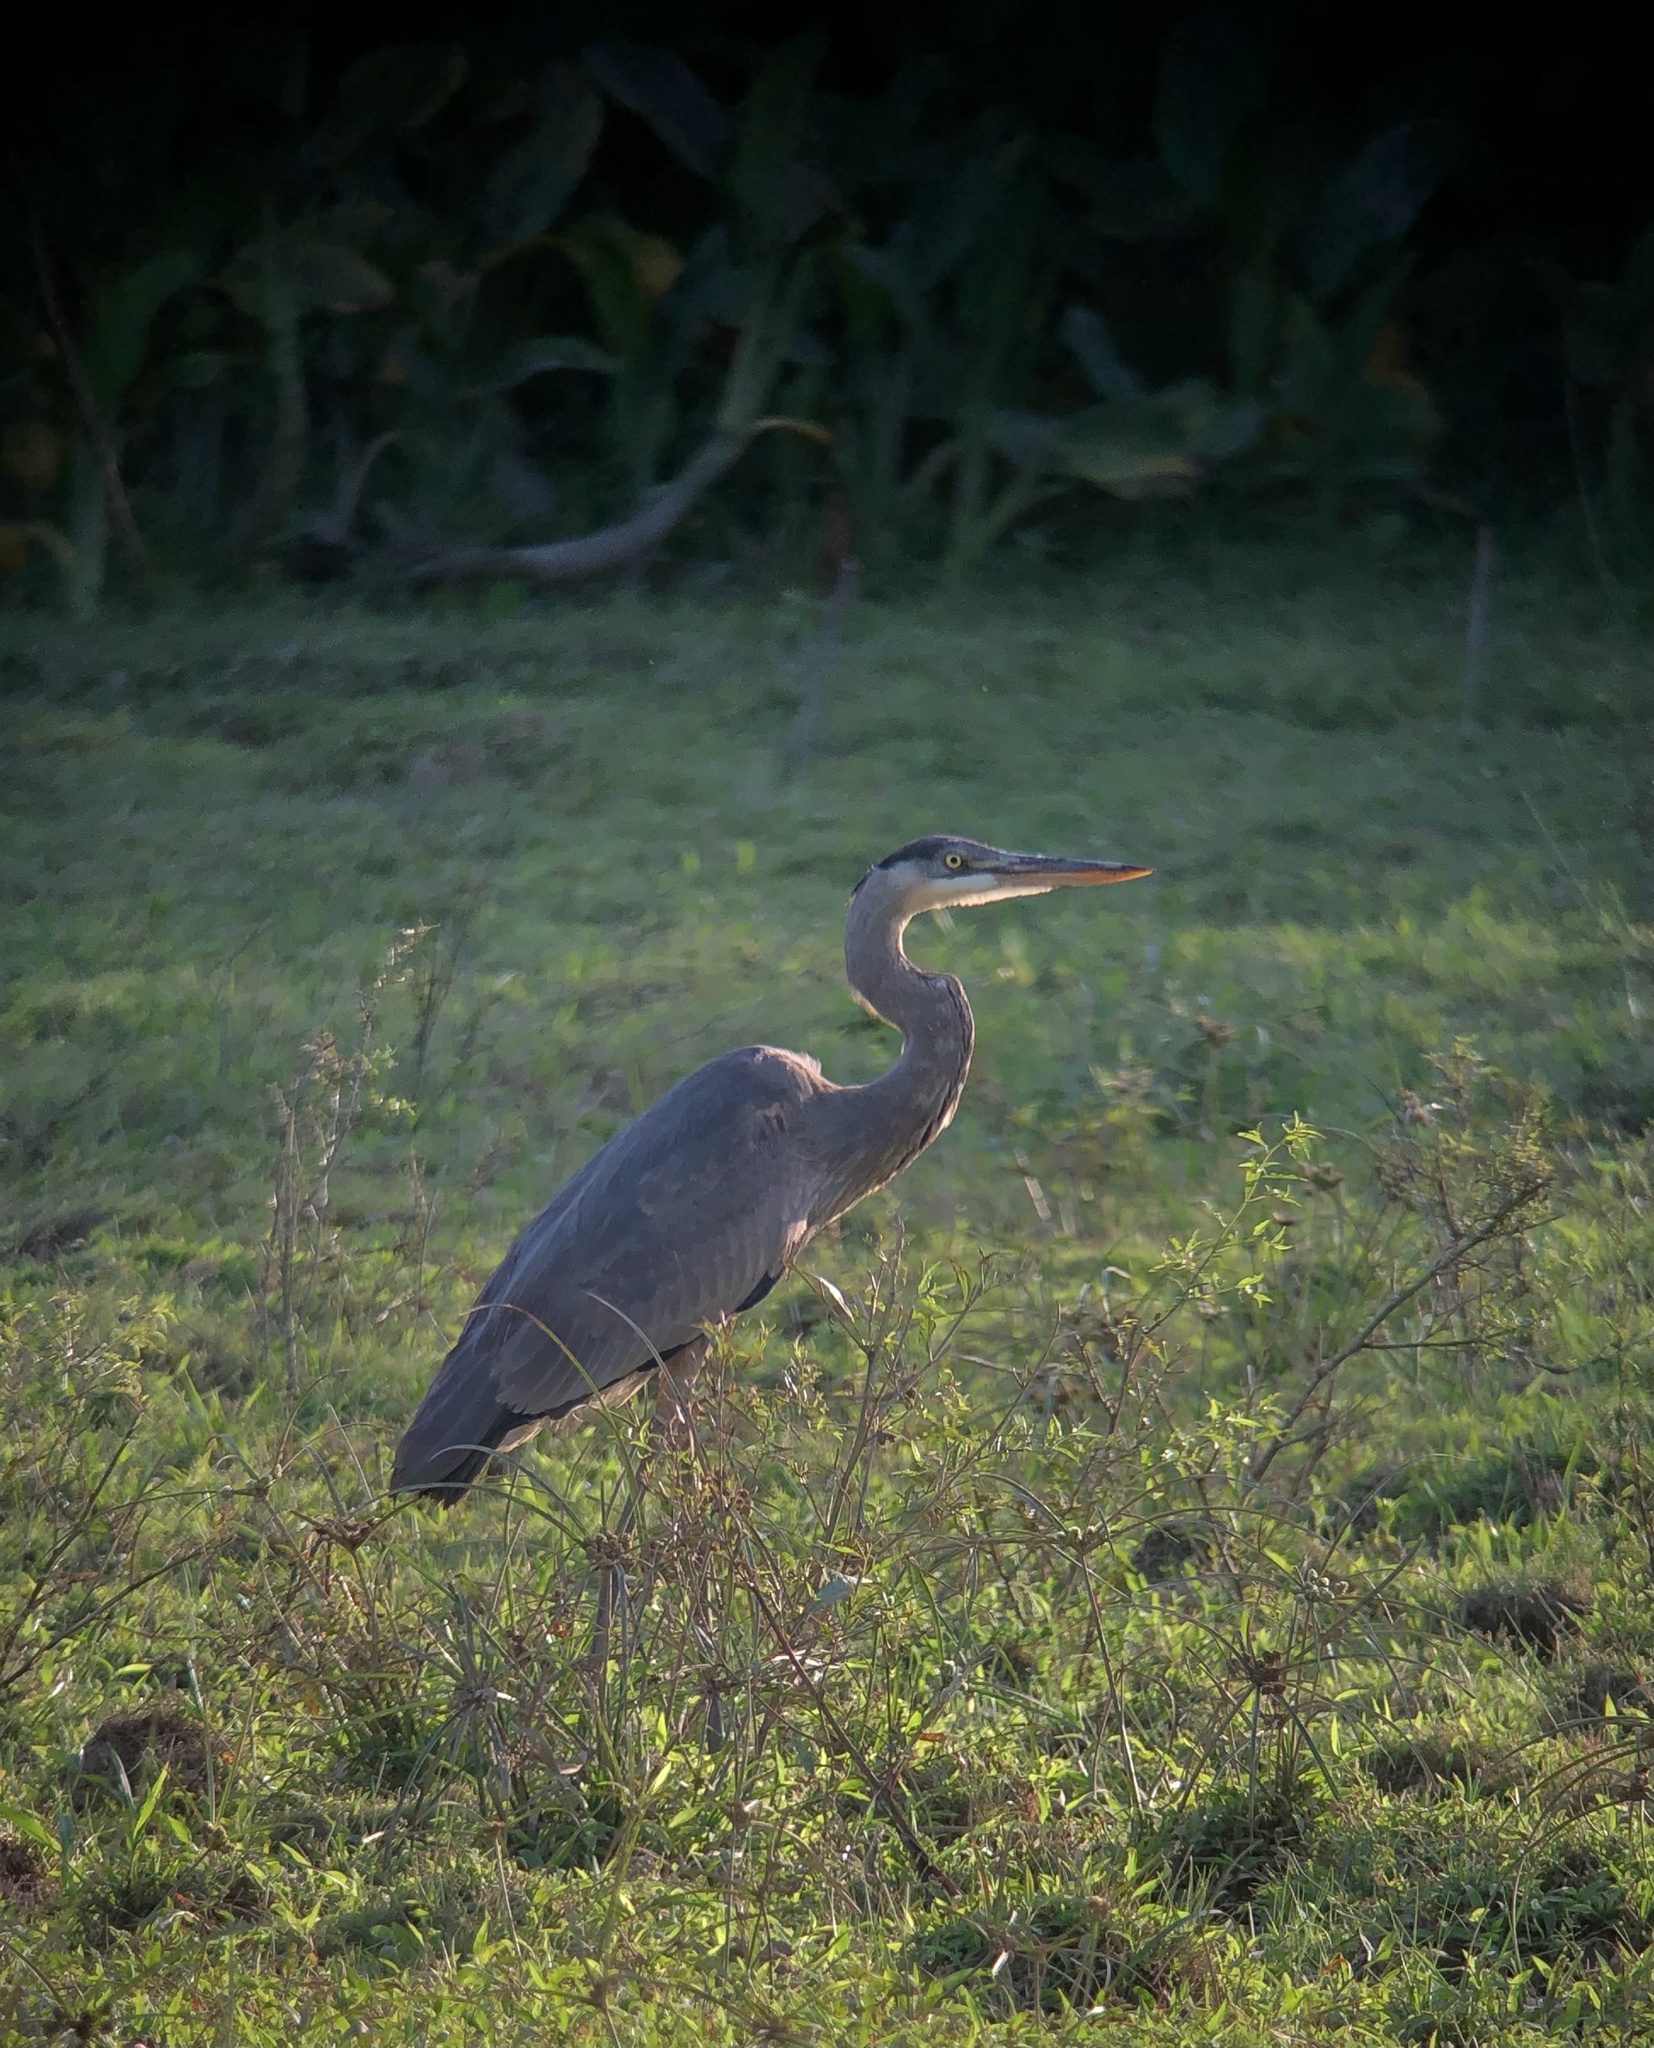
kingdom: Animalia
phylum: Chordata
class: Aves
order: Pelecaniformes
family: Ardeidae
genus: Ardea
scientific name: Ardea herodias
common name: Great blue heron
